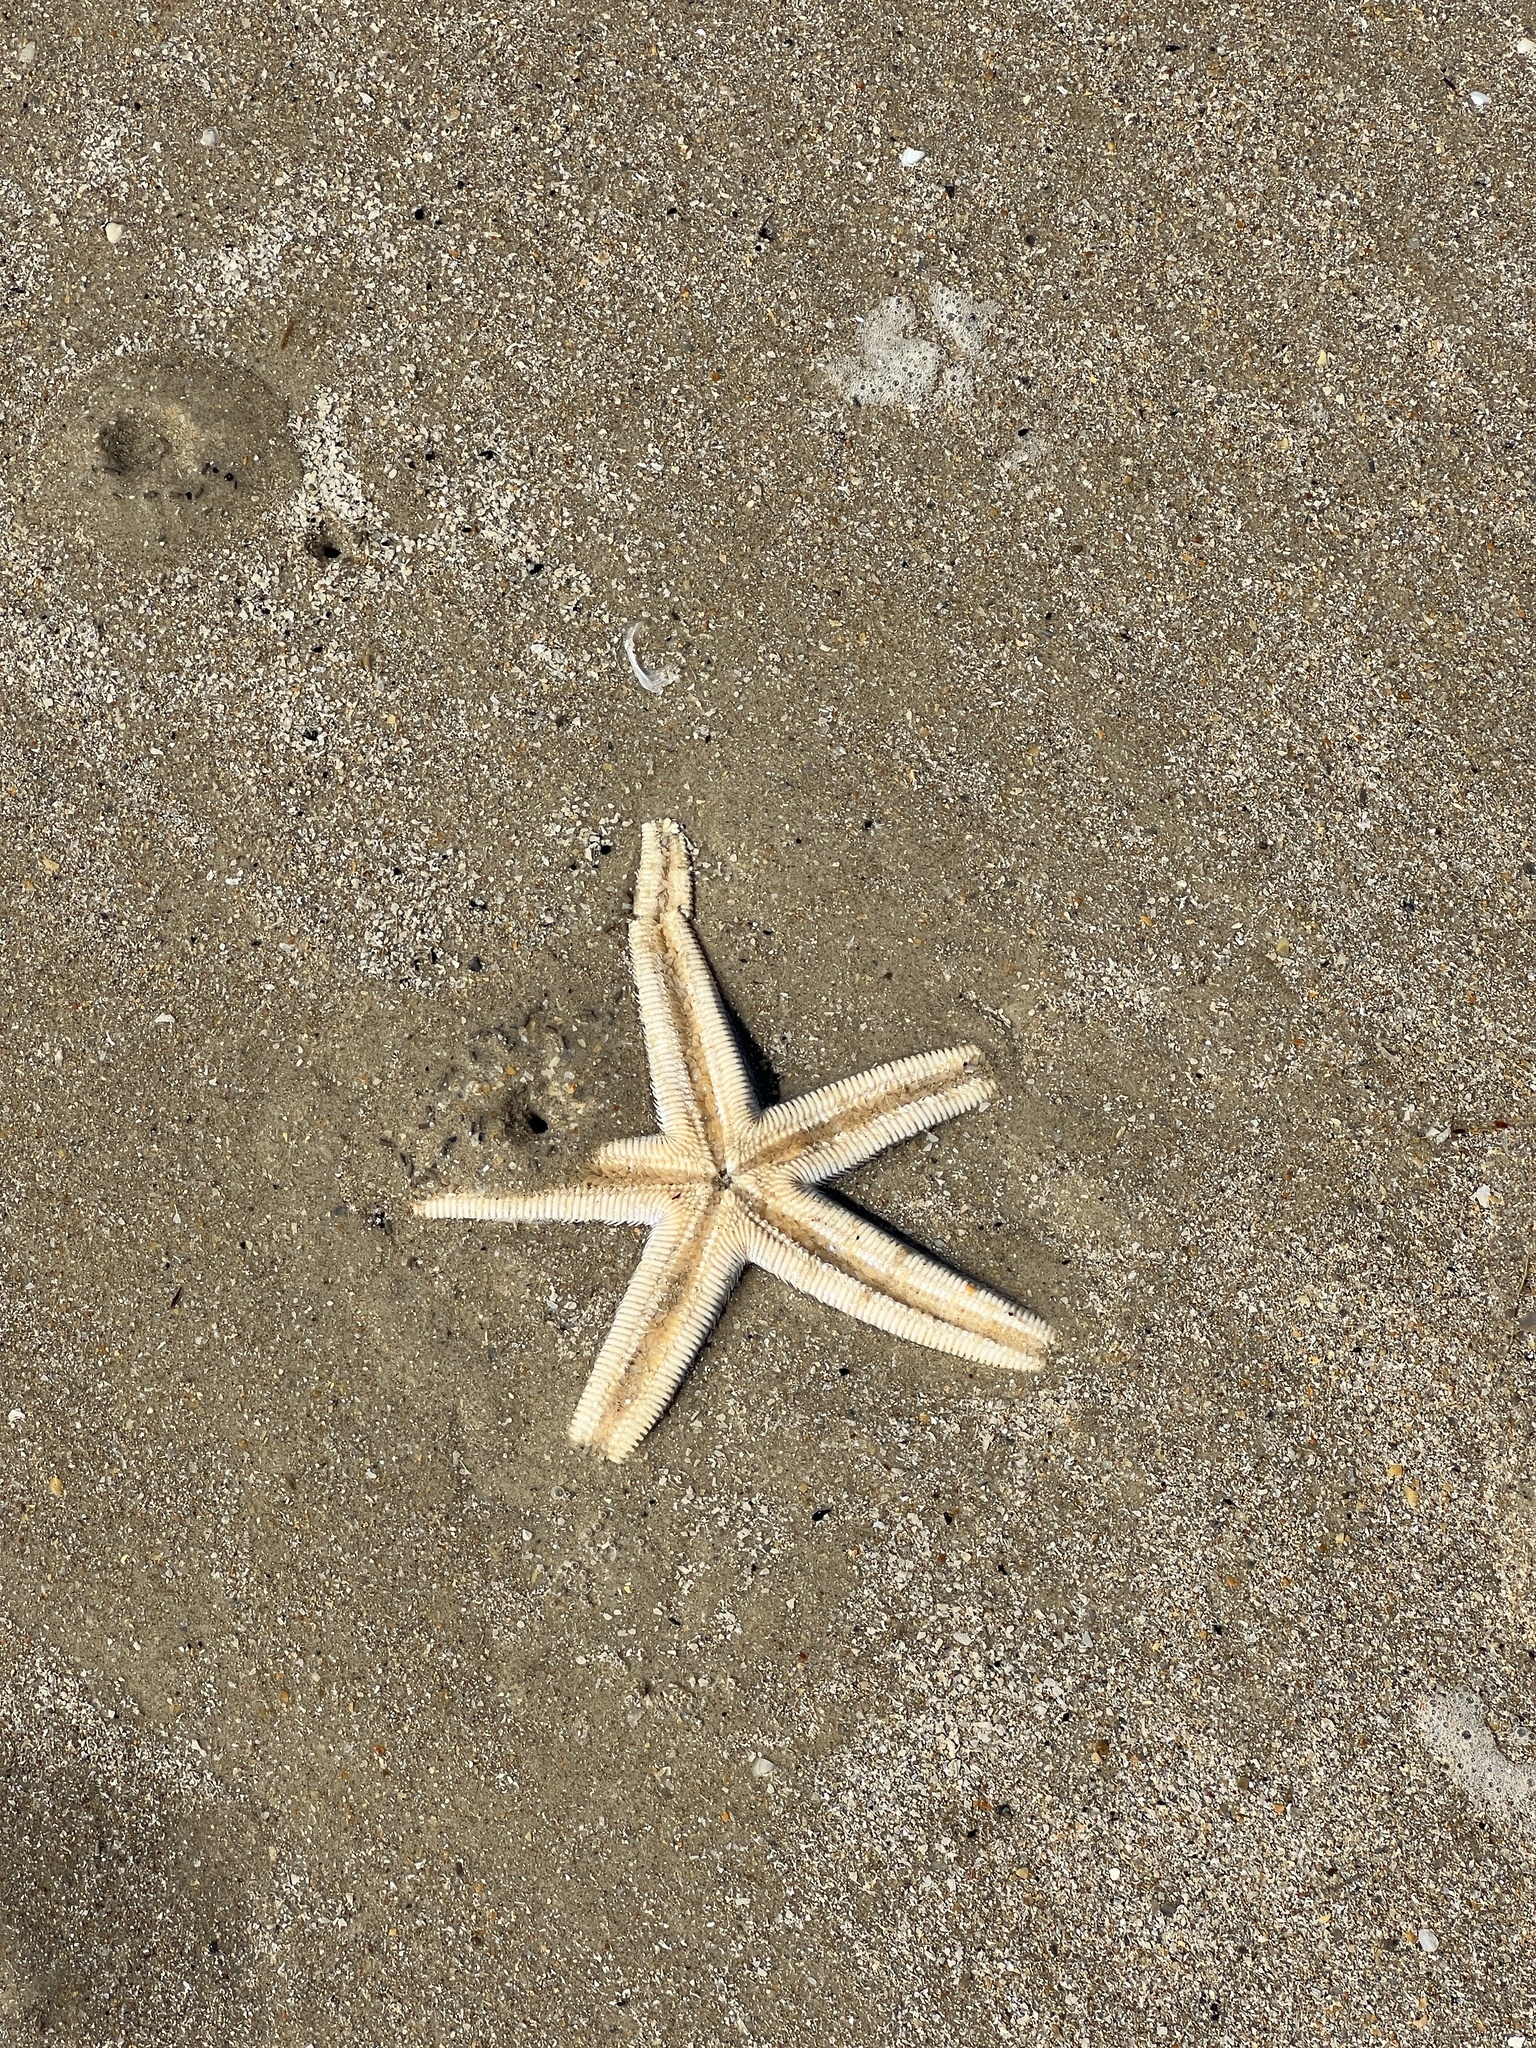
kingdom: Animalia
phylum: Echinodermata
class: Asteroidea
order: Paxillosida
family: Luidiidae
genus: Luidia
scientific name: Luidia clathrata
